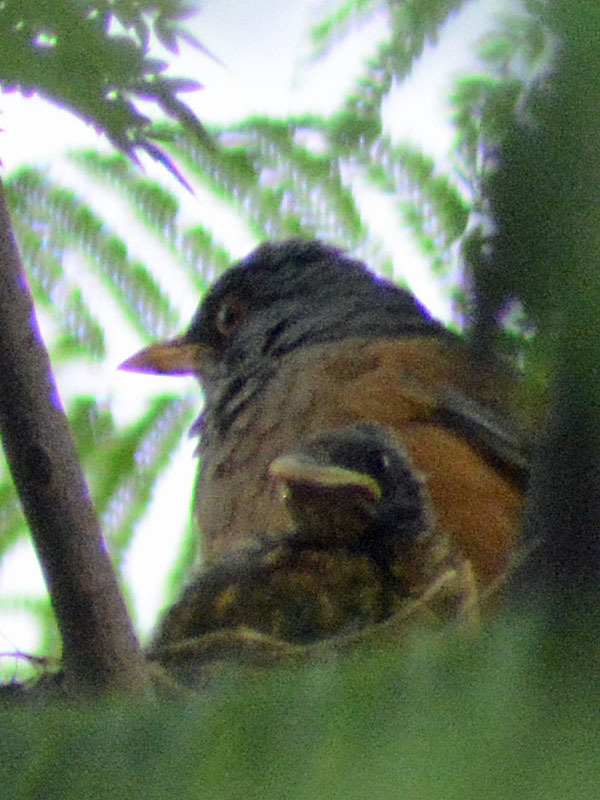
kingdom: Animalia
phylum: Chordata
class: Aves
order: Passeriformes
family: Turdidae
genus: Turdus
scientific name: Turdus rufopalliatus
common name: Rufous-backed robin
